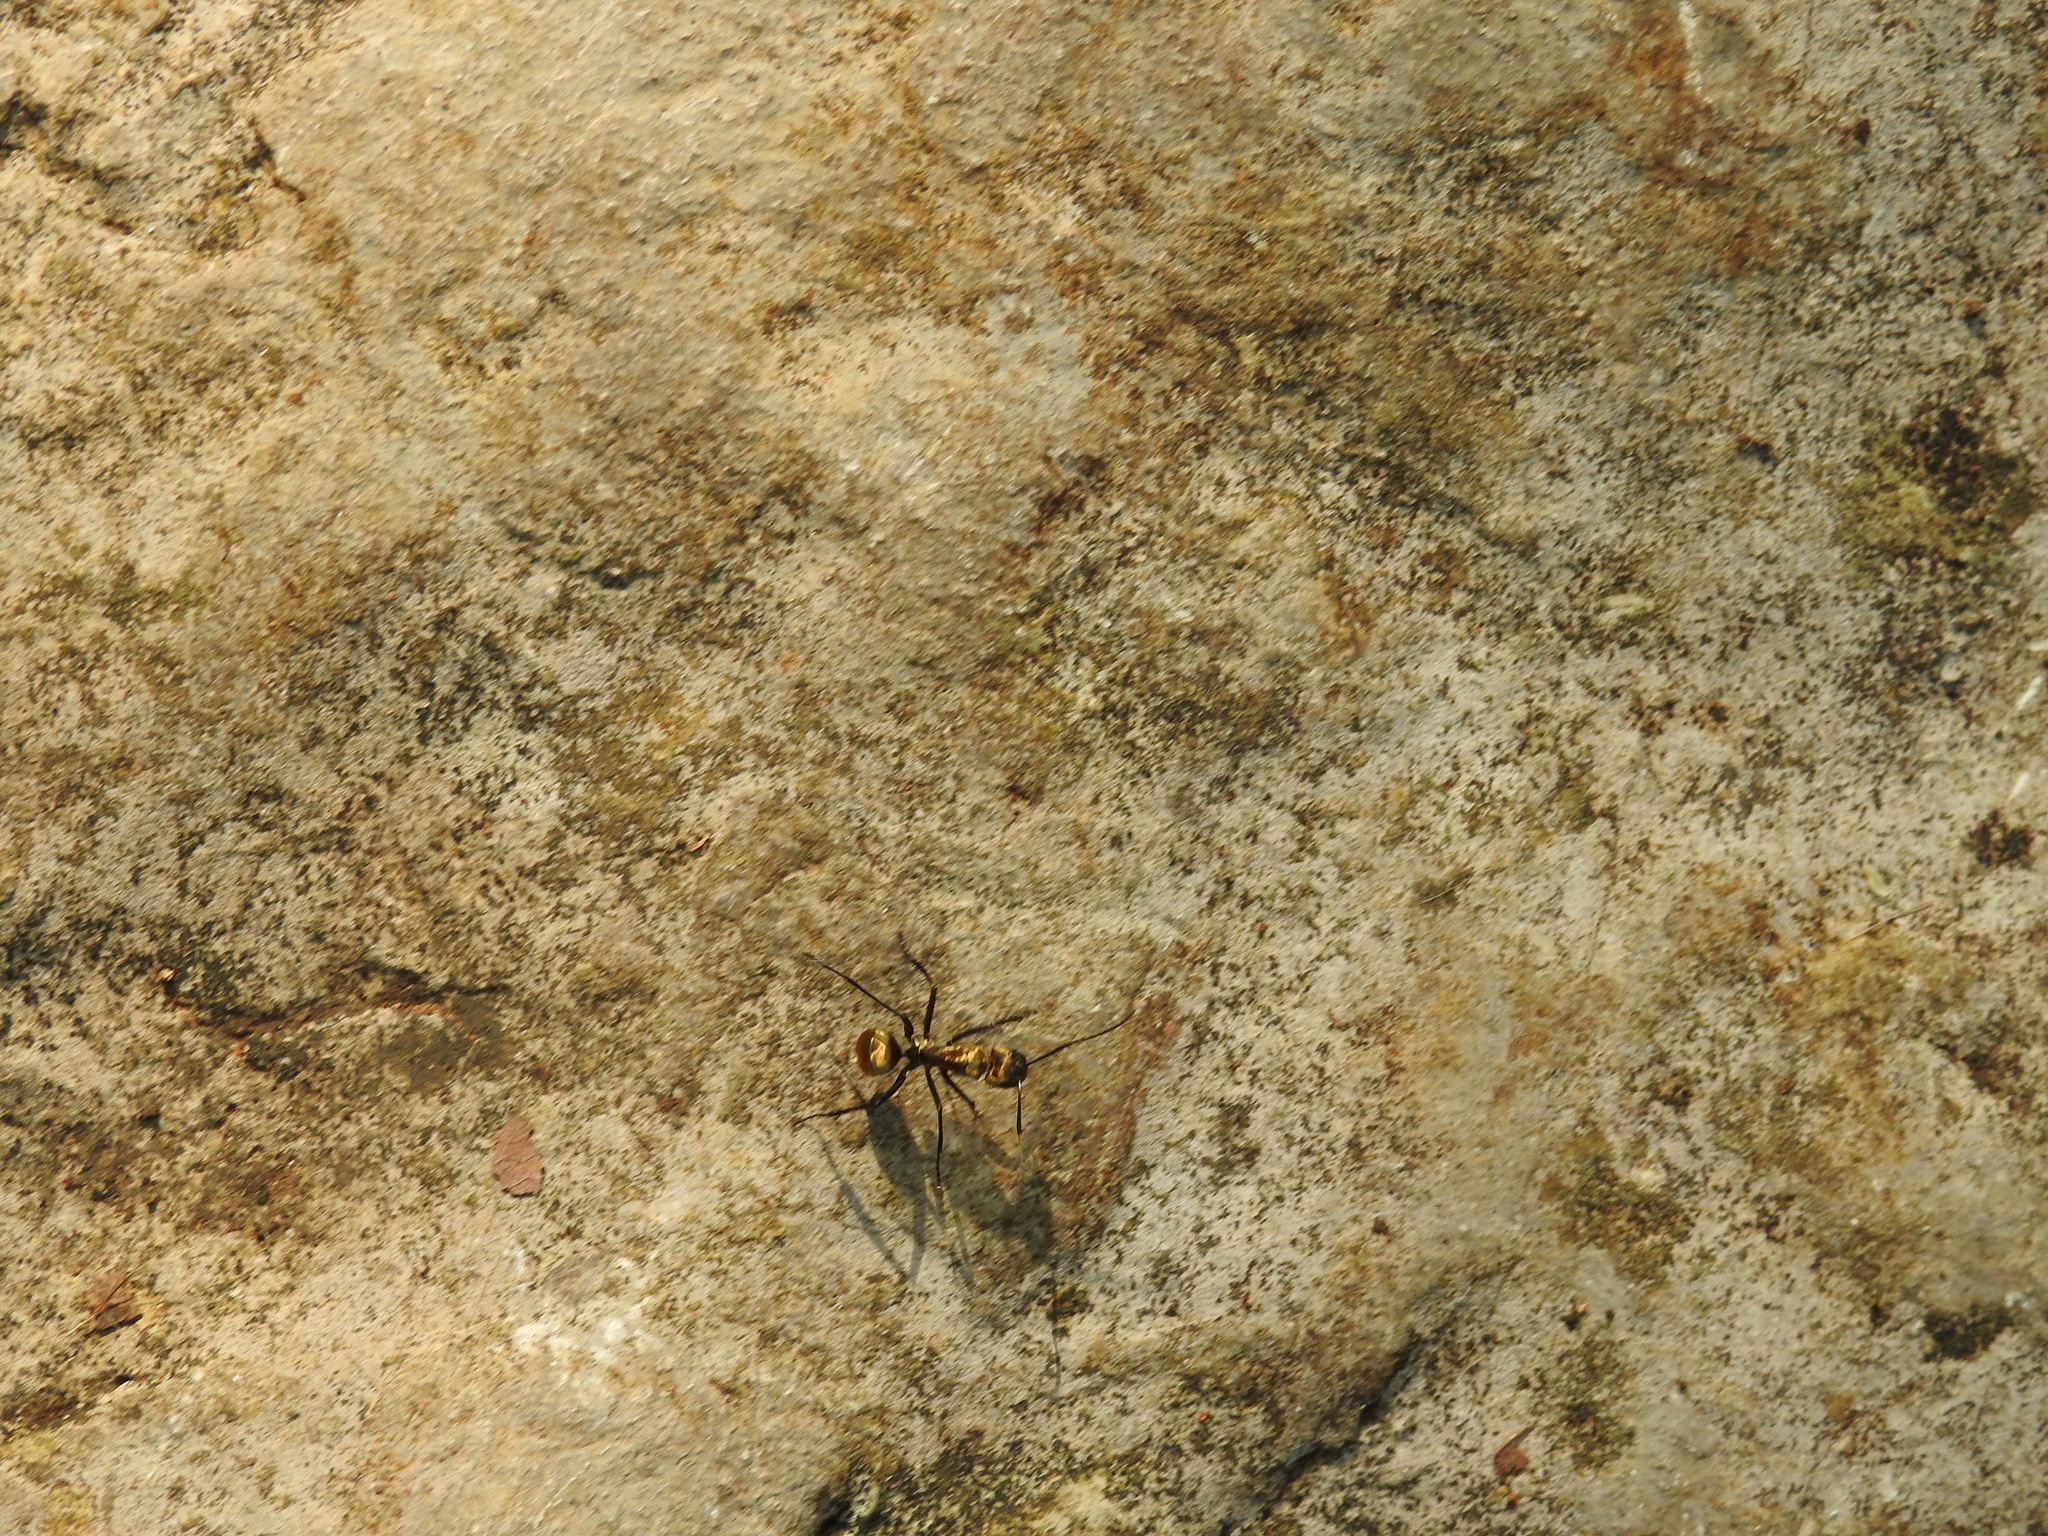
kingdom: Animalia
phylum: Arthropoda
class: Insecta
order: Hymenoptera
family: Formicidae
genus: Camponotus
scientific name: Camponotus sericeiventris
